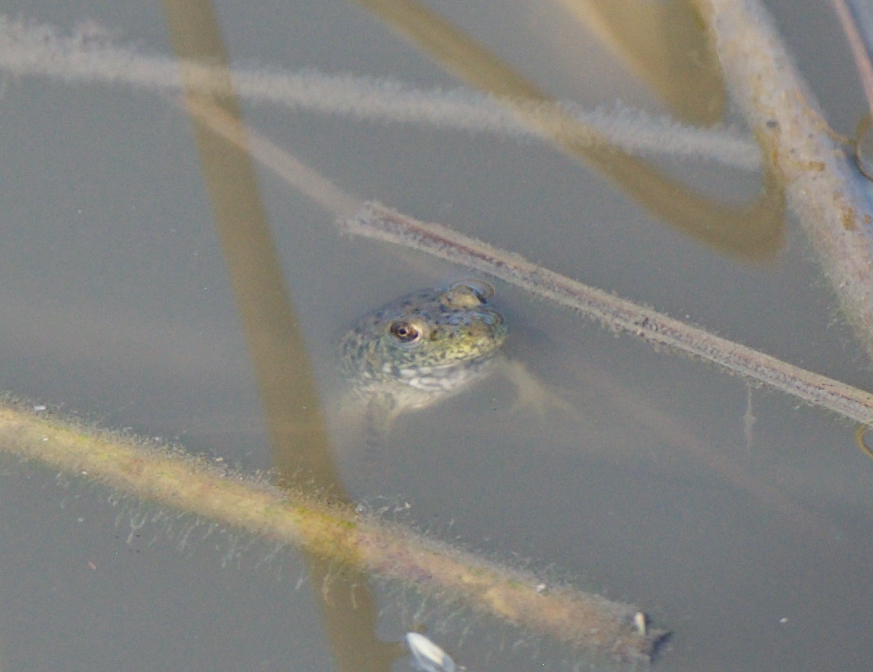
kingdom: Animalia
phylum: Chordata
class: Amphibia
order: Anura
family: Ranidae
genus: Lithobates
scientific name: Lithobates catesbeianus
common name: American bullfrog
